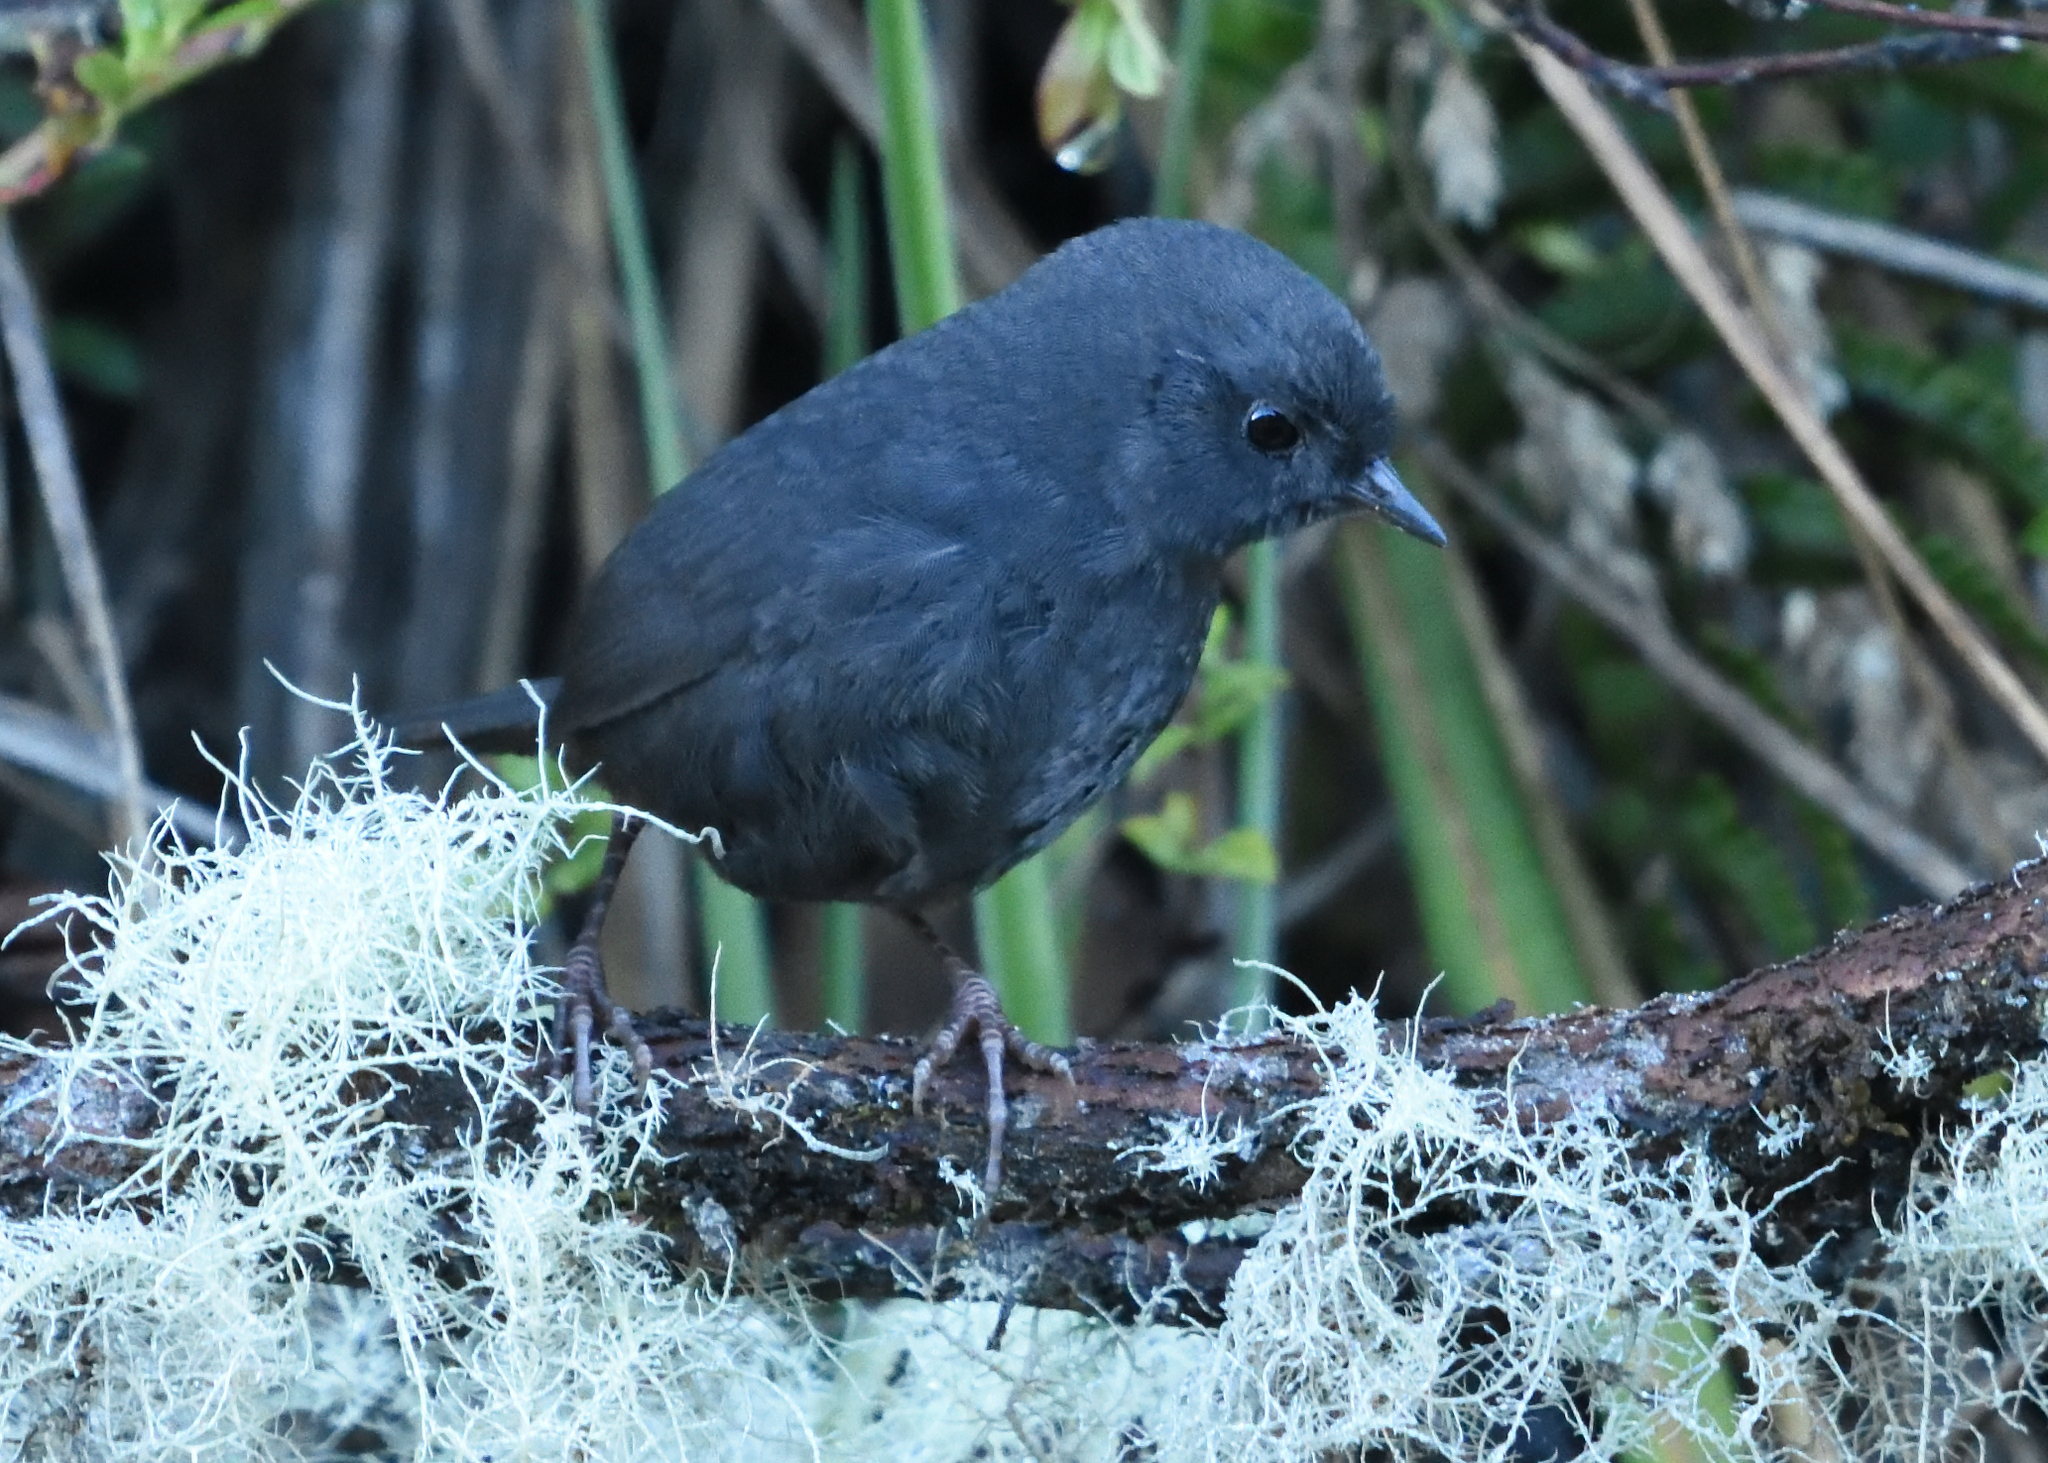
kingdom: Animalia
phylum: Chordata
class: Aves
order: Passeriformes
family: Rhinocryptidae
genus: Scytalopus
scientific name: Scytalopus opacus
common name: Paramo tapaculo
